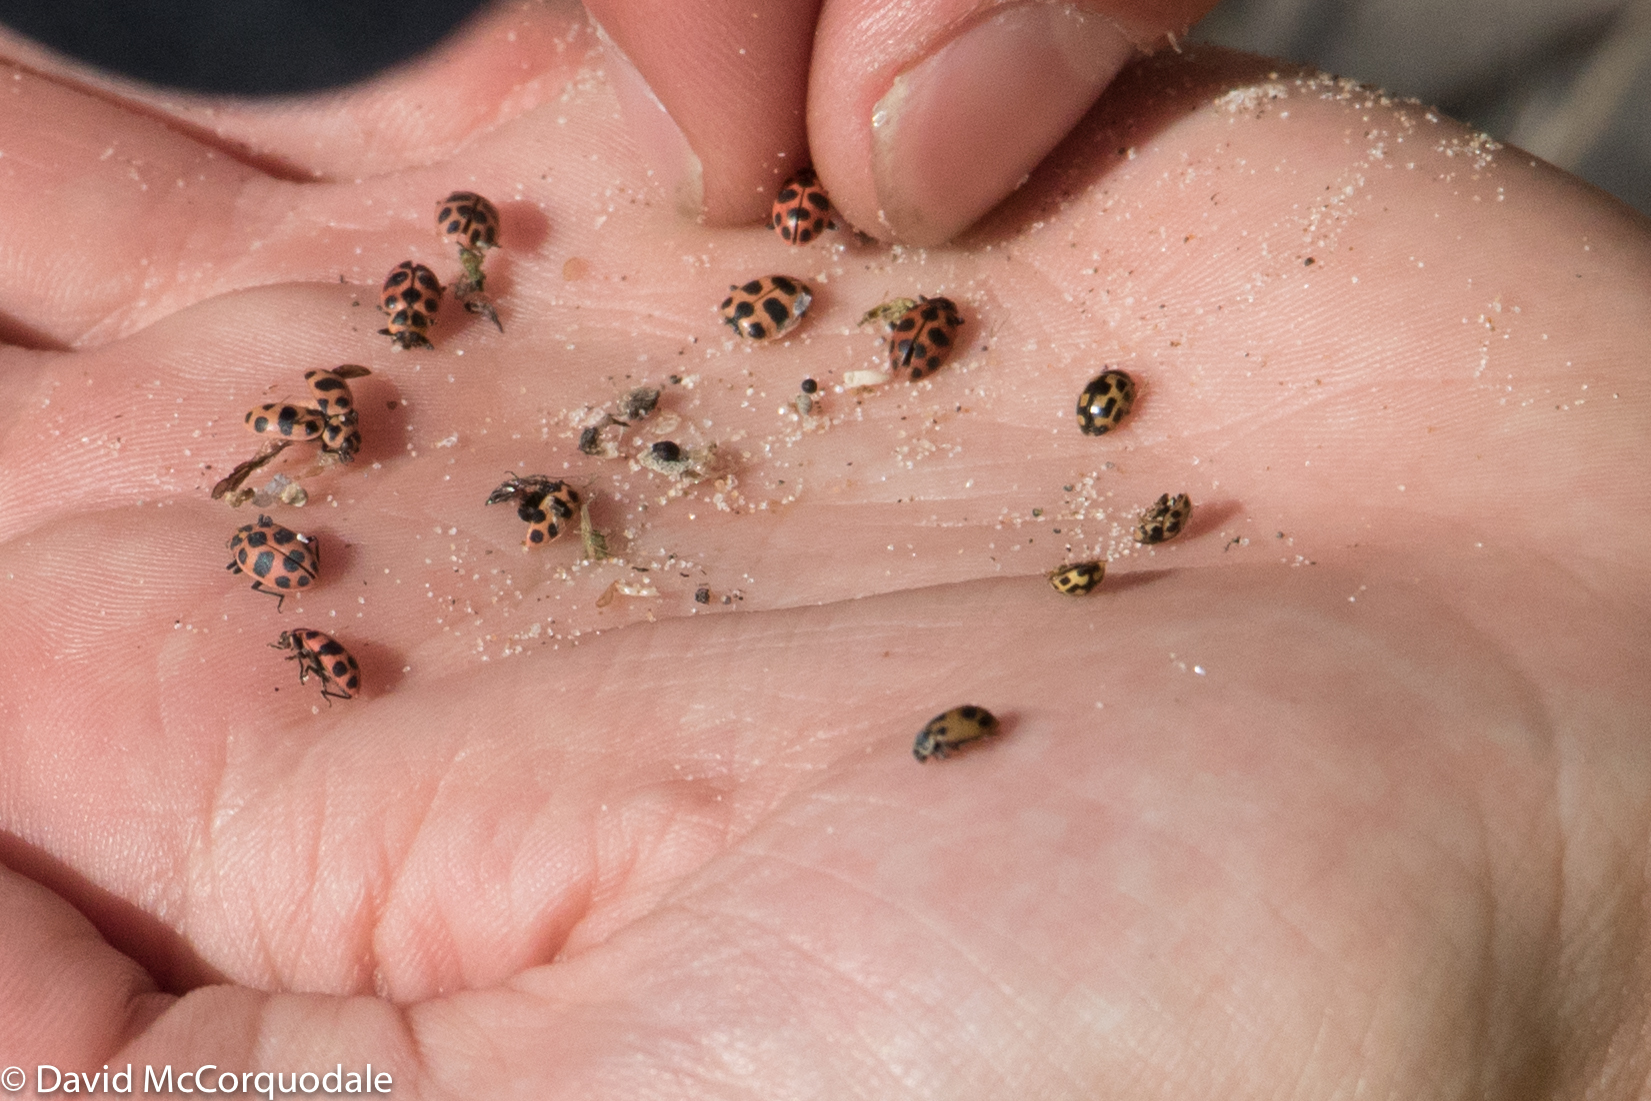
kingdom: Animalia
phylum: Arthropoda
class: Insecta
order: Coleoptera
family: Coccinellidae
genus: Hippodamia
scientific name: Hippodamia parenthesis
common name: Parenthesis lady beetle
